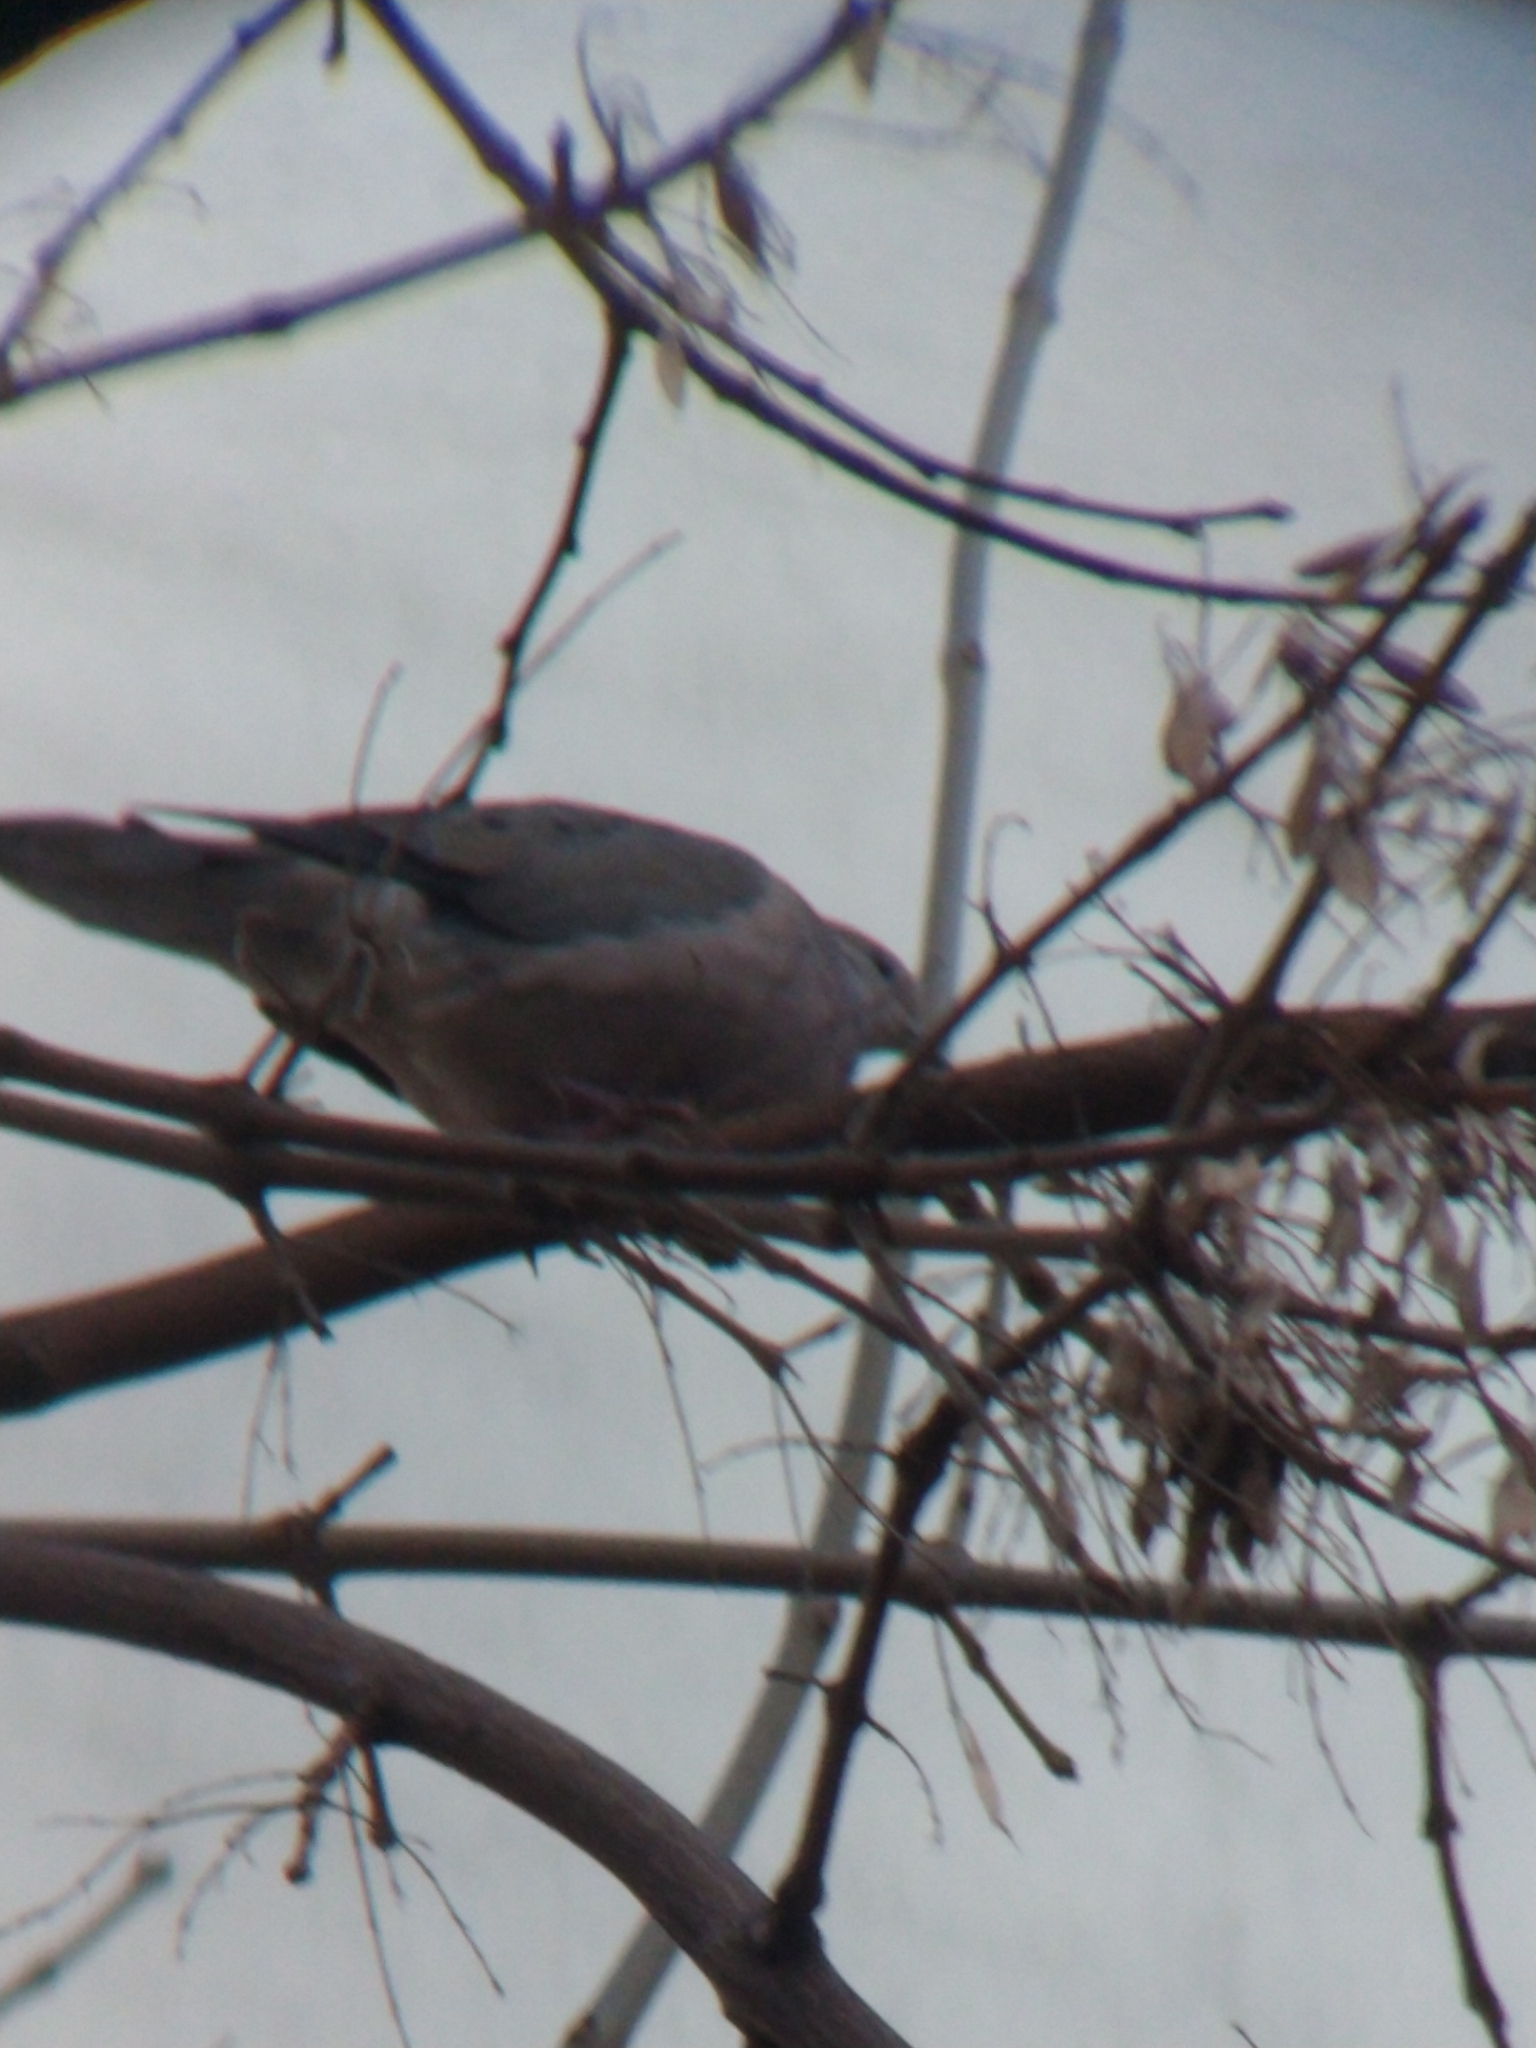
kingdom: Animalia
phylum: Chordata
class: Aves
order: Columbiformes
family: Columbidae
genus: Zenaida
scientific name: Zenaida auriculata
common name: Eared dove
